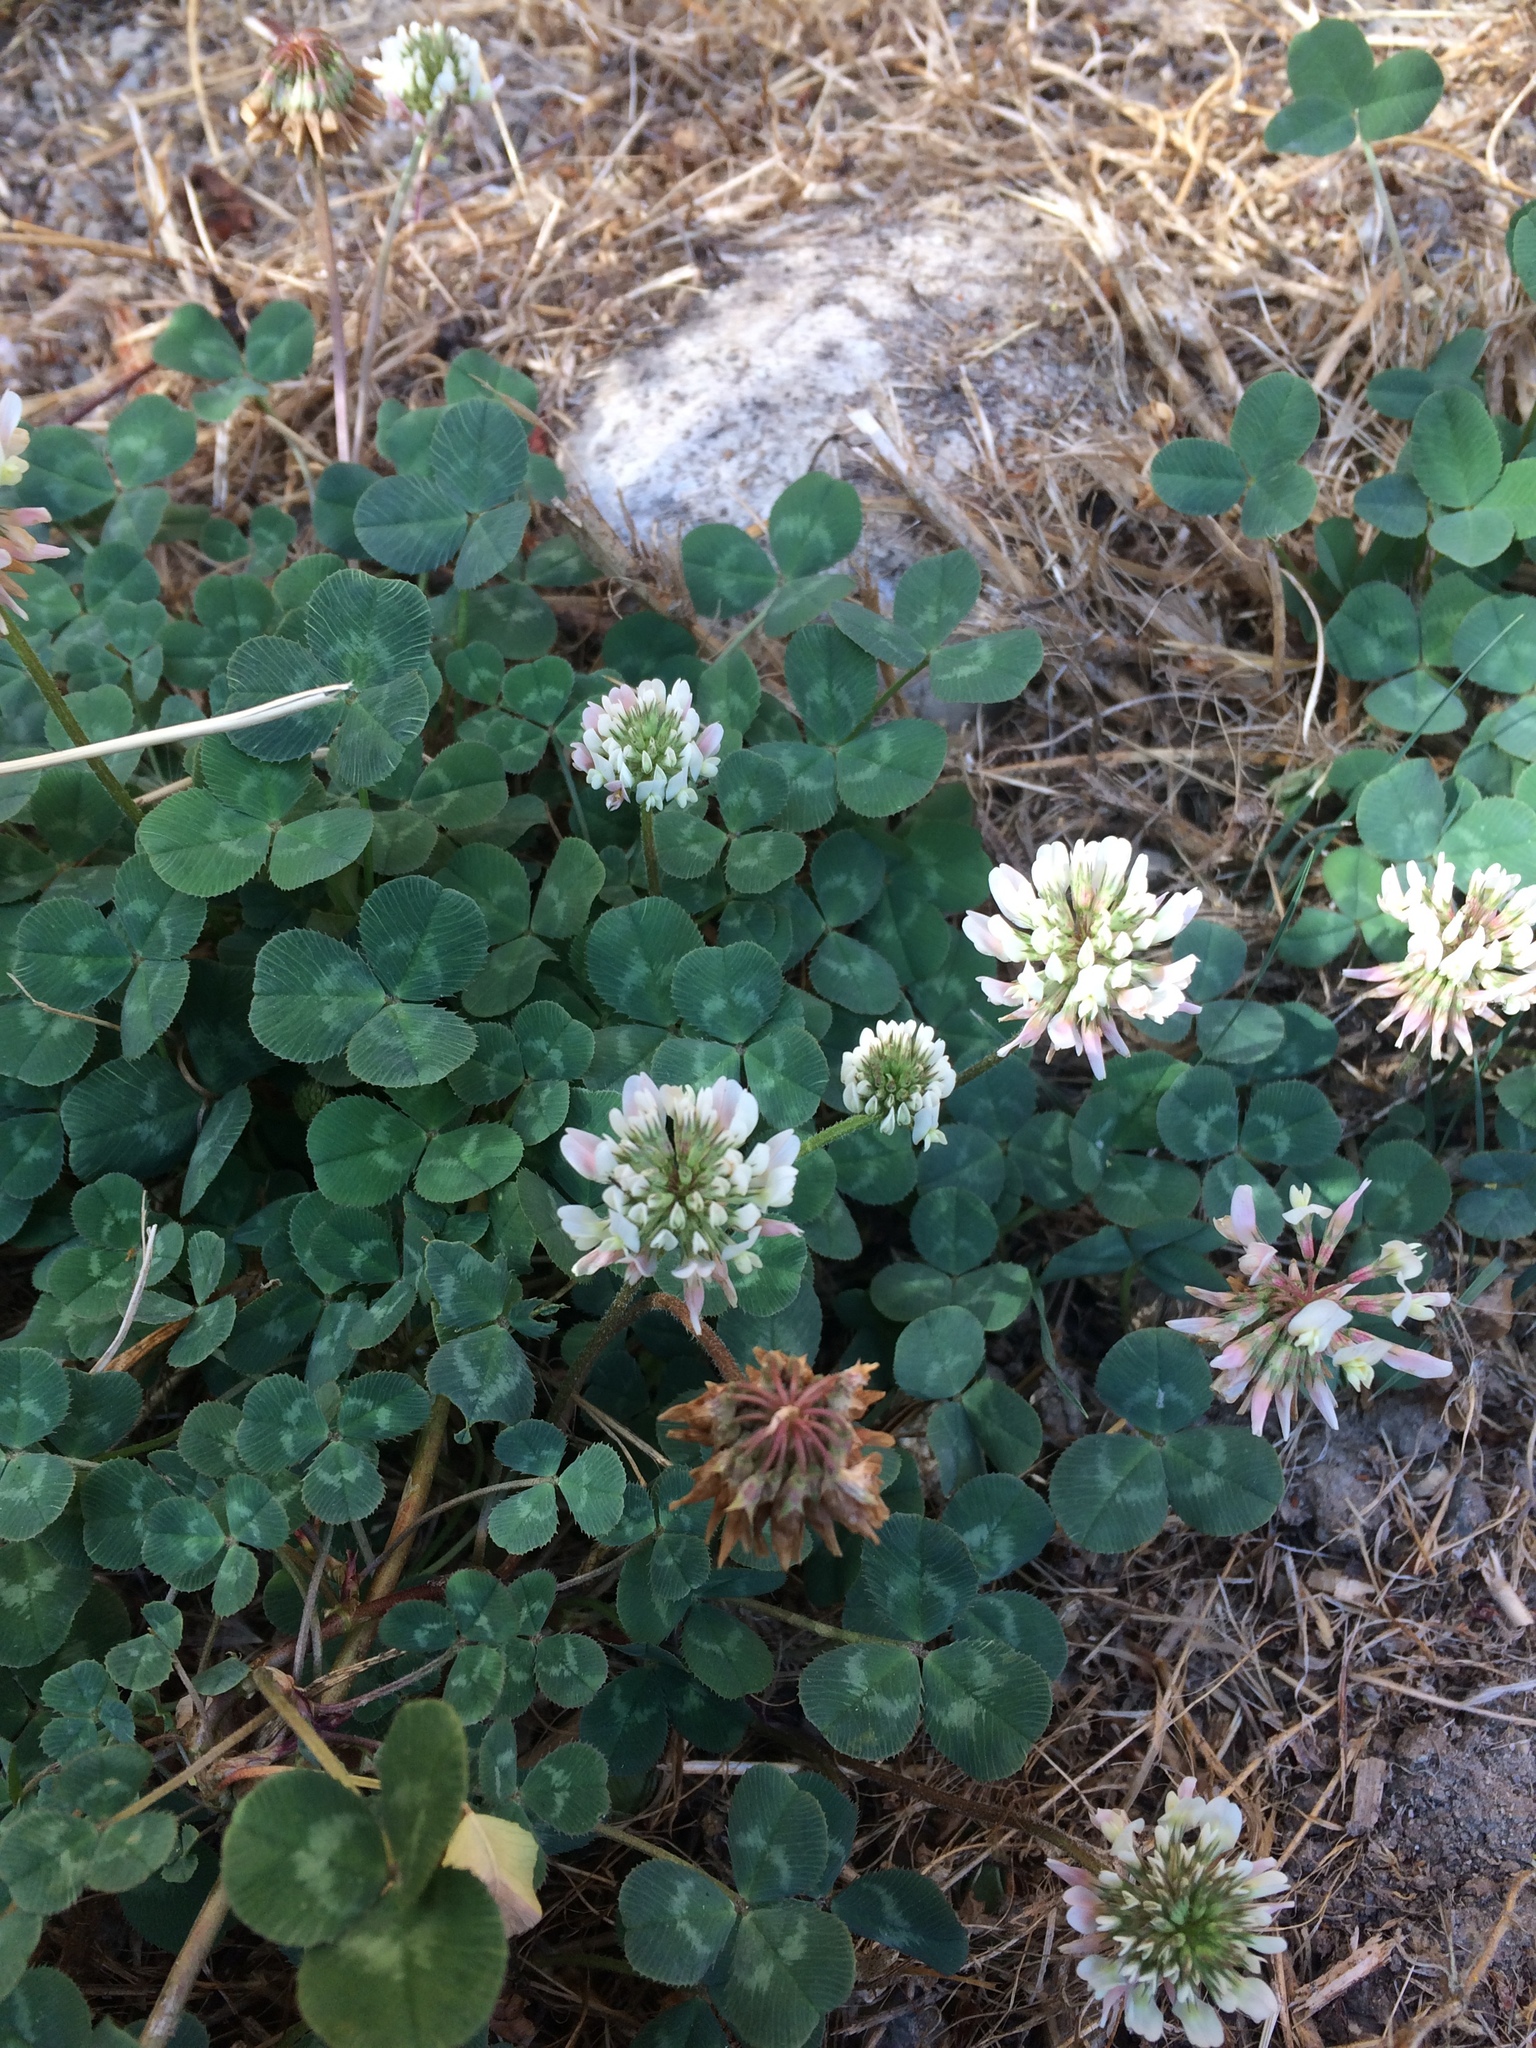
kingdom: Plantae
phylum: Tracheophyta
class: Magnoliopsida
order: Fabales
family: Fabaceae
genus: Trifolium
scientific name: Trifolium repens
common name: White clover
